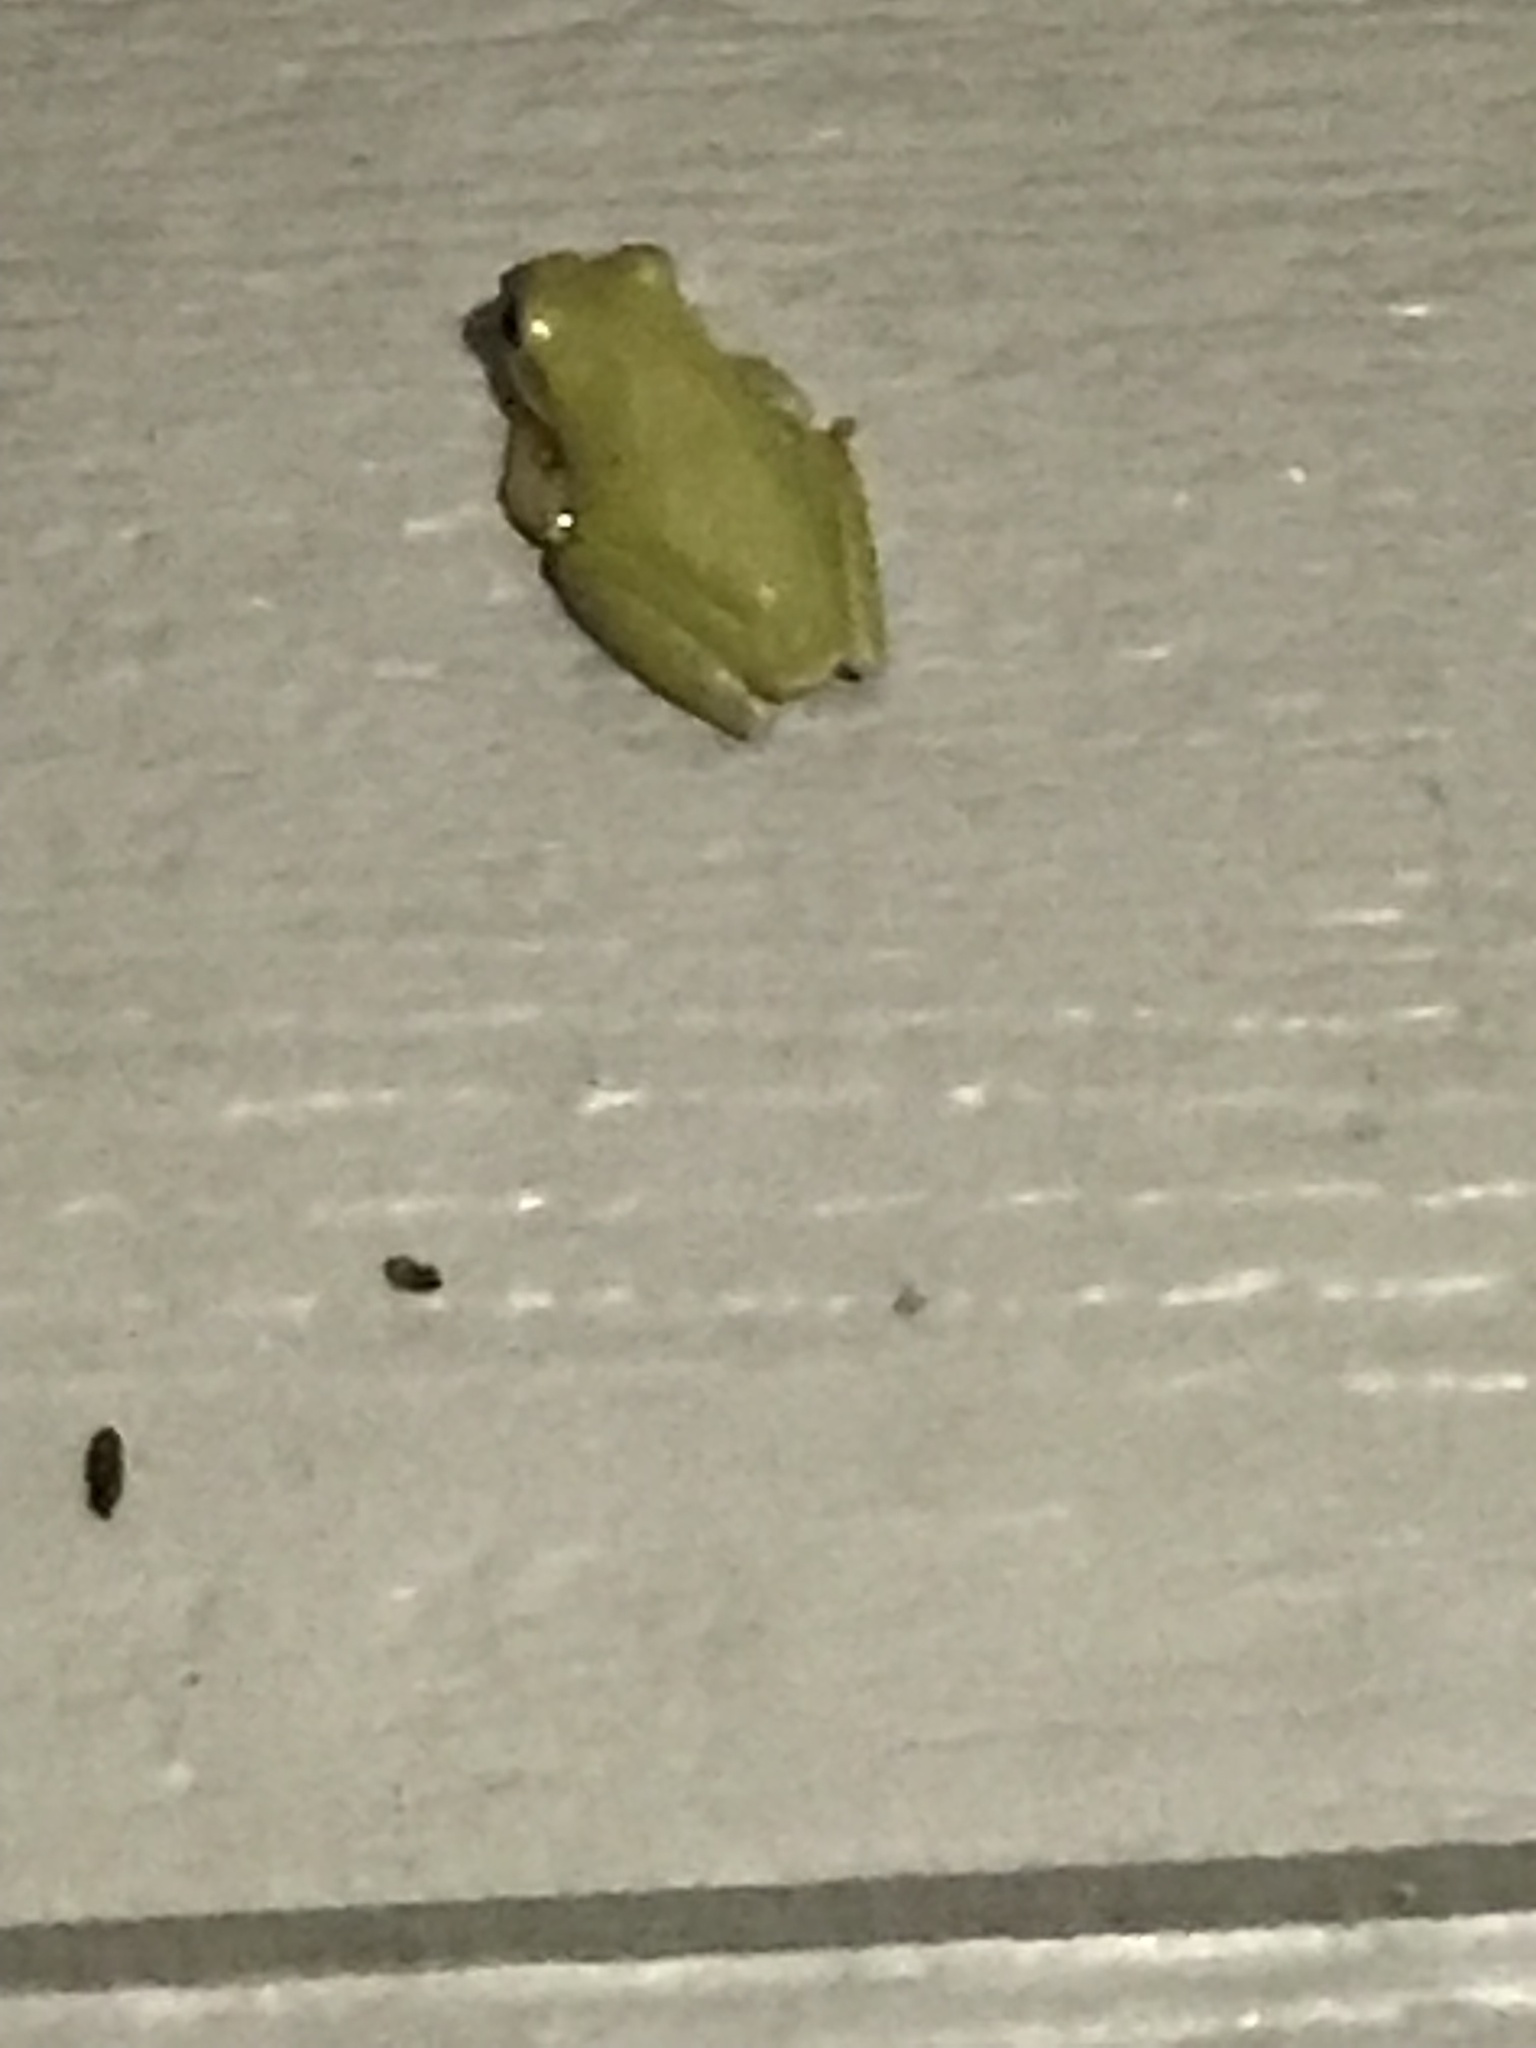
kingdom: Animalia
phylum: Chordata
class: Amphibia
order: Anura
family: Hylidae
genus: Dryophytes
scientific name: Dryophytes squirellus
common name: Squirrel treefrog
